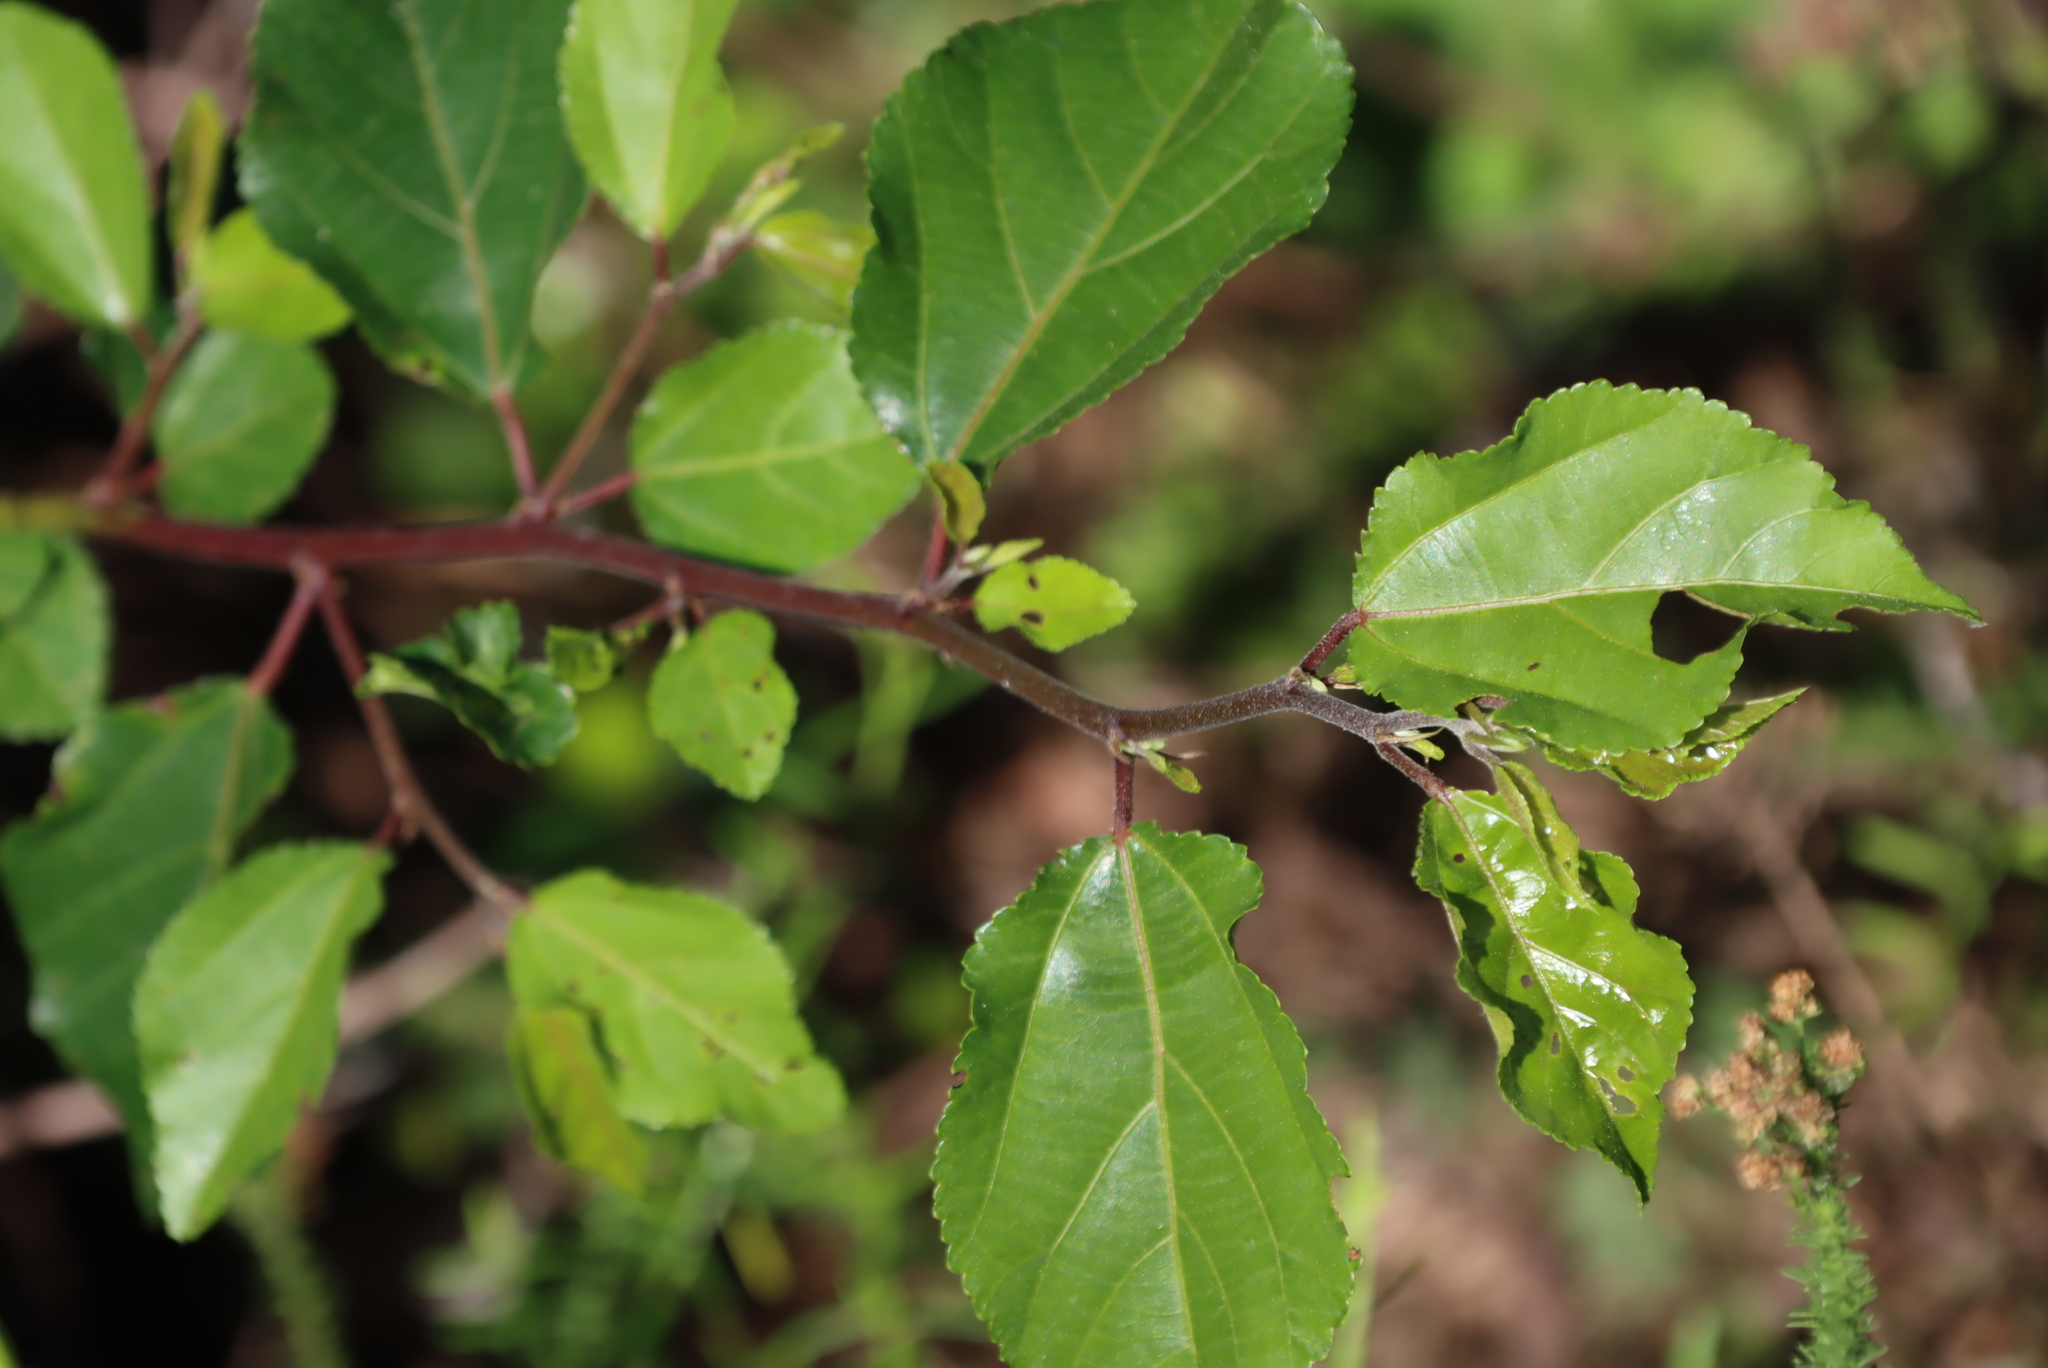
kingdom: Plantae
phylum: Tracheophyta
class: Magnoliopsida
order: Malvales
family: Malvaceae
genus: Grewia
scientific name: Grewia occidentalis
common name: Crossberry
